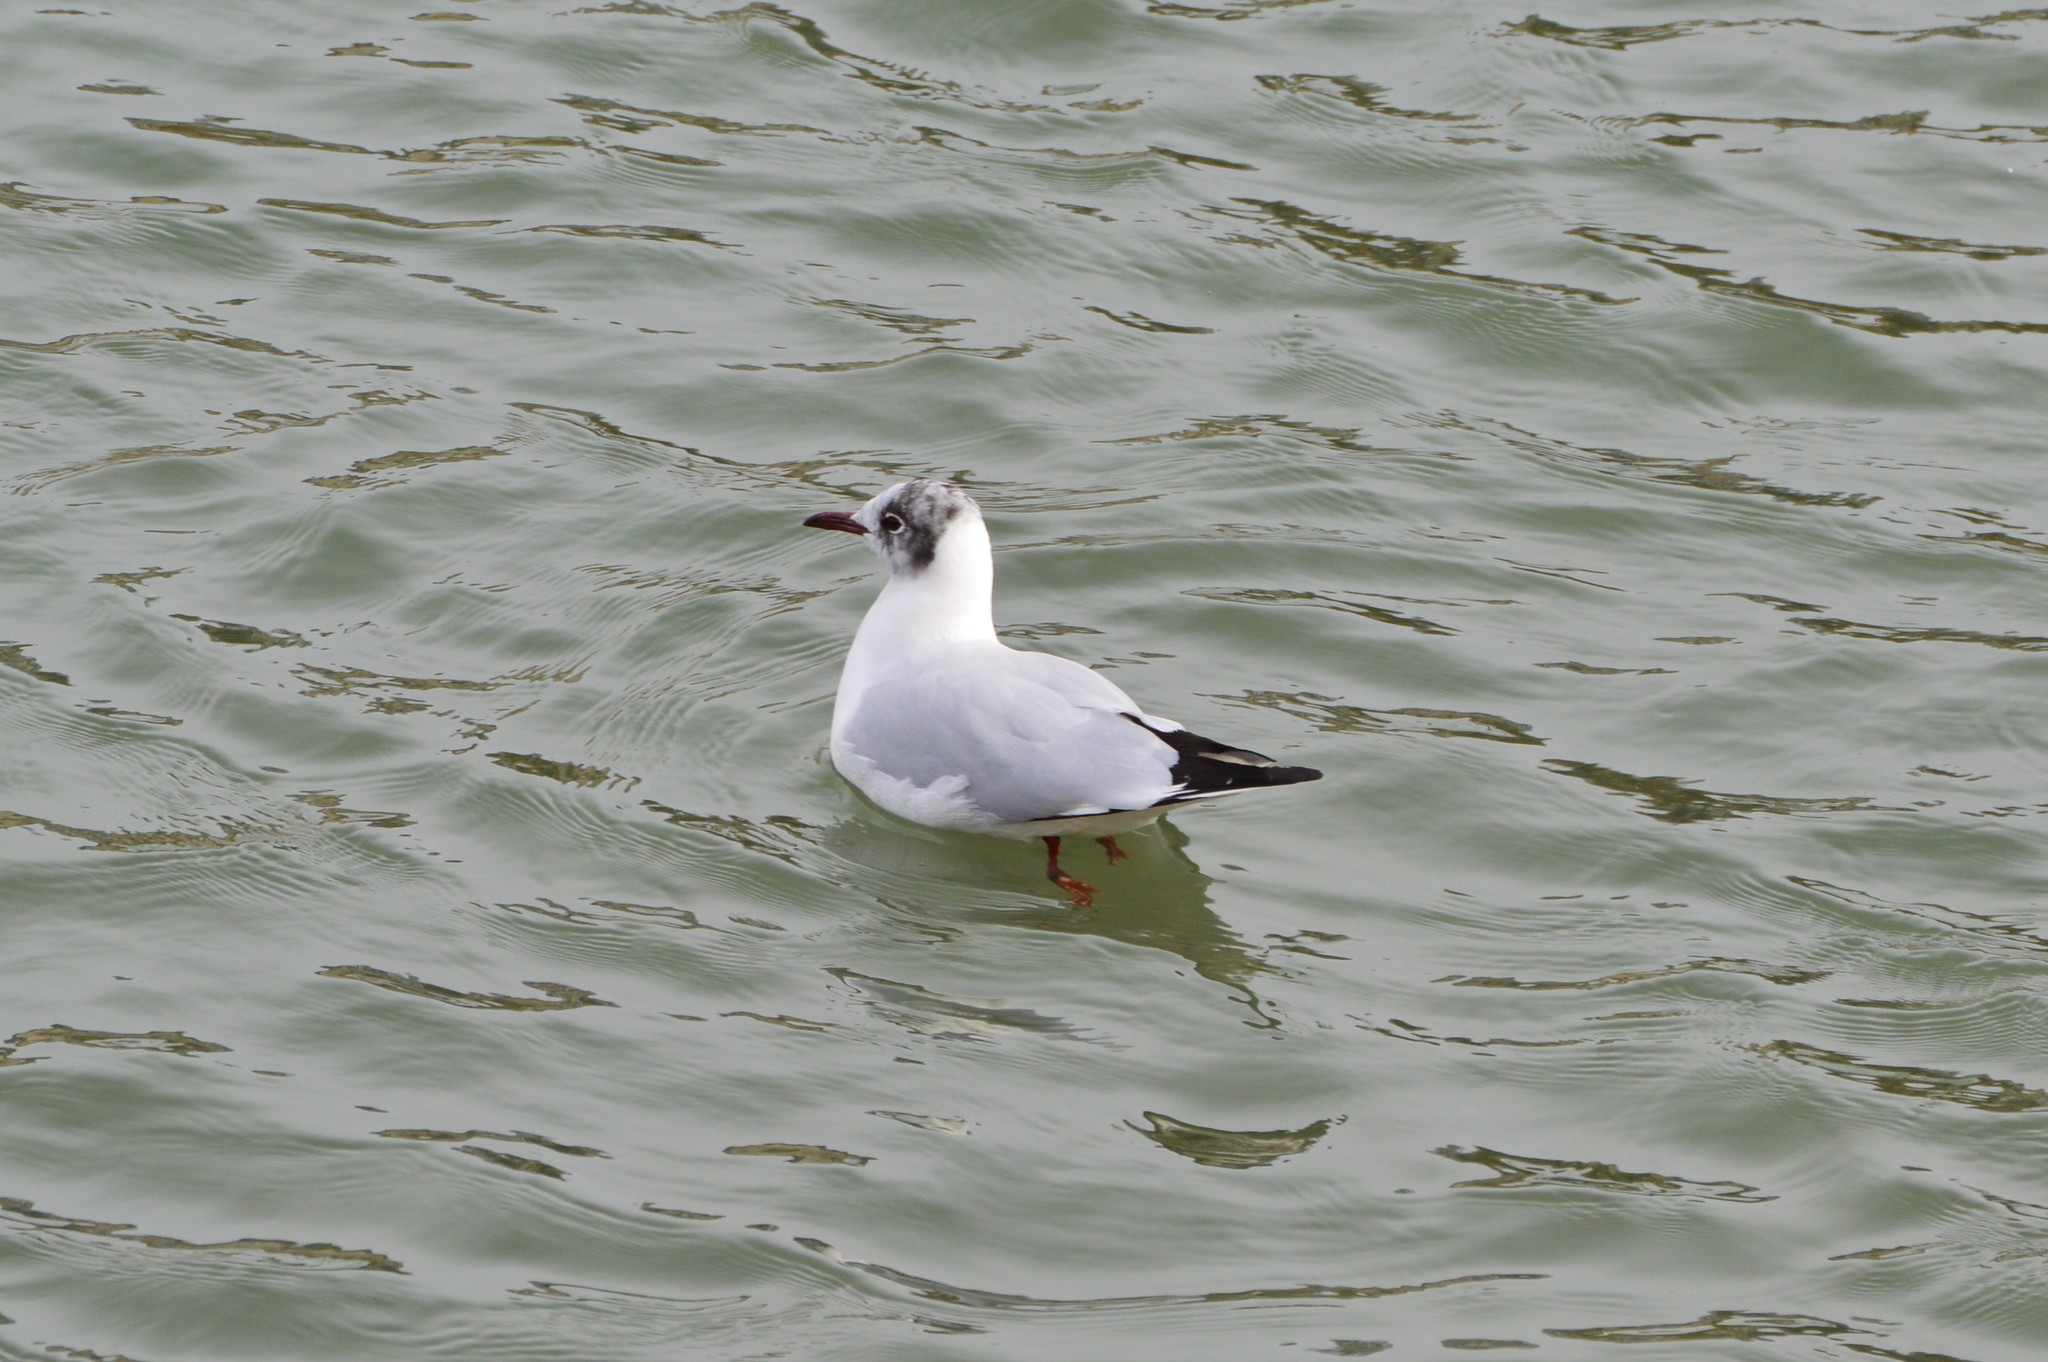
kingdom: Animalia
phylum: Chordata
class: Aves
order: Charadriiformes
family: Laridae
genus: Chroicocephalus
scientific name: Chroicocephalus ridibundus
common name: Black-headed gull
